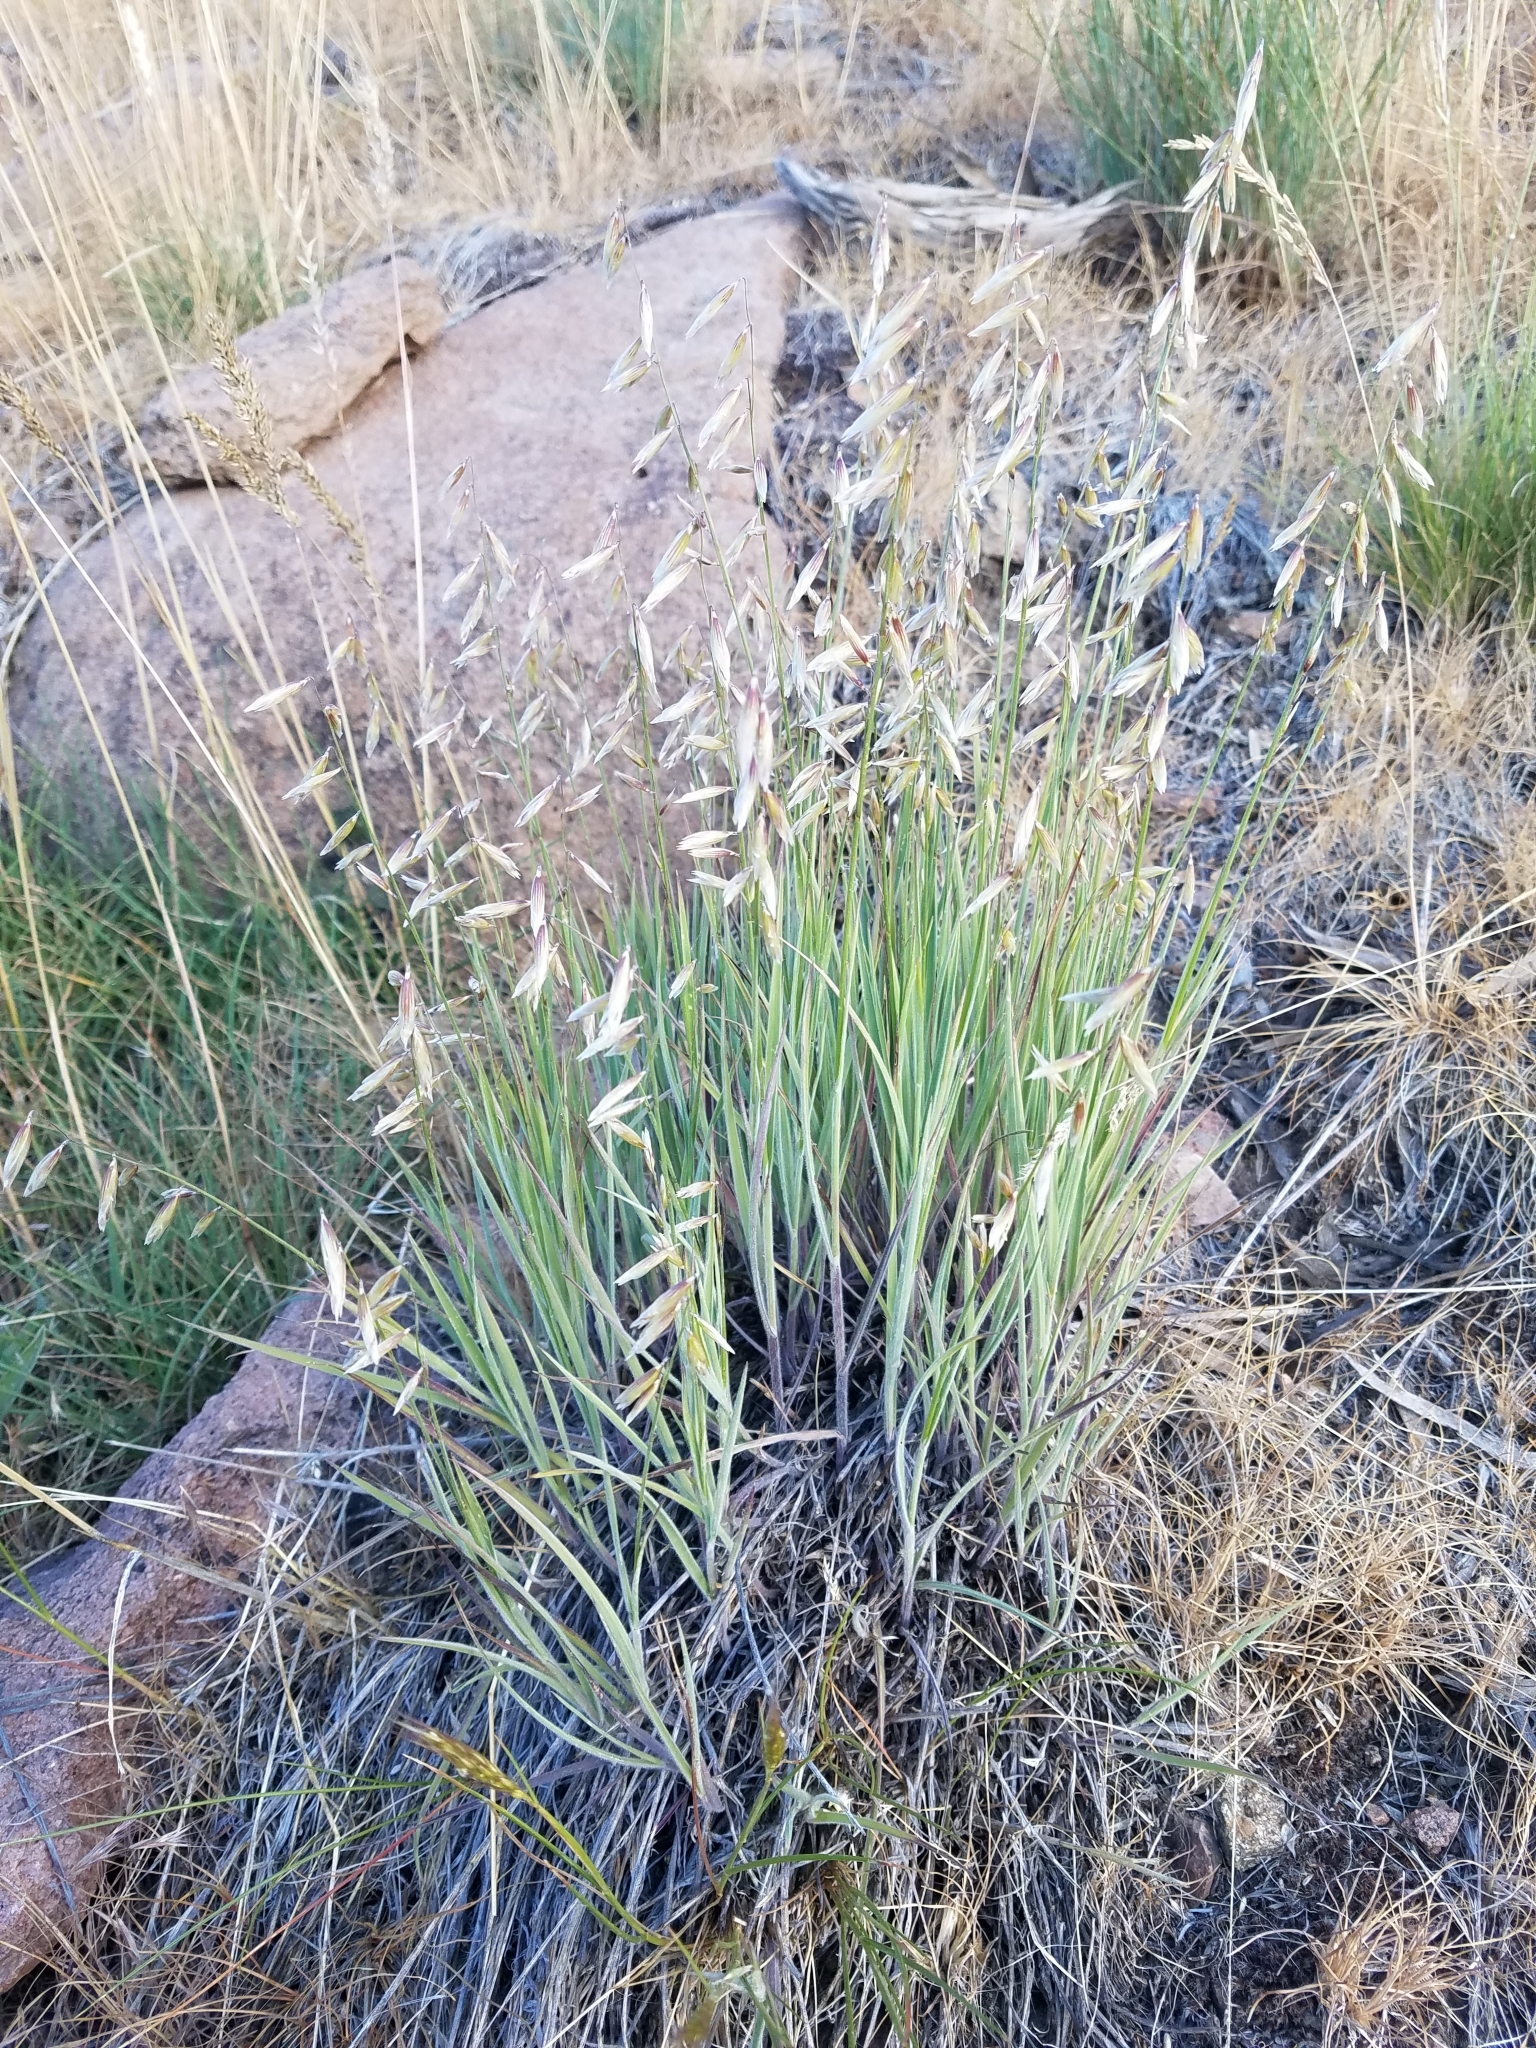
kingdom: Plantae
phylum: Tracheophyta
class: Liliopsida
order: Poales
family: Poaceae
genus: Melica
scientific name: Melica stricta
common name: Rock melic
